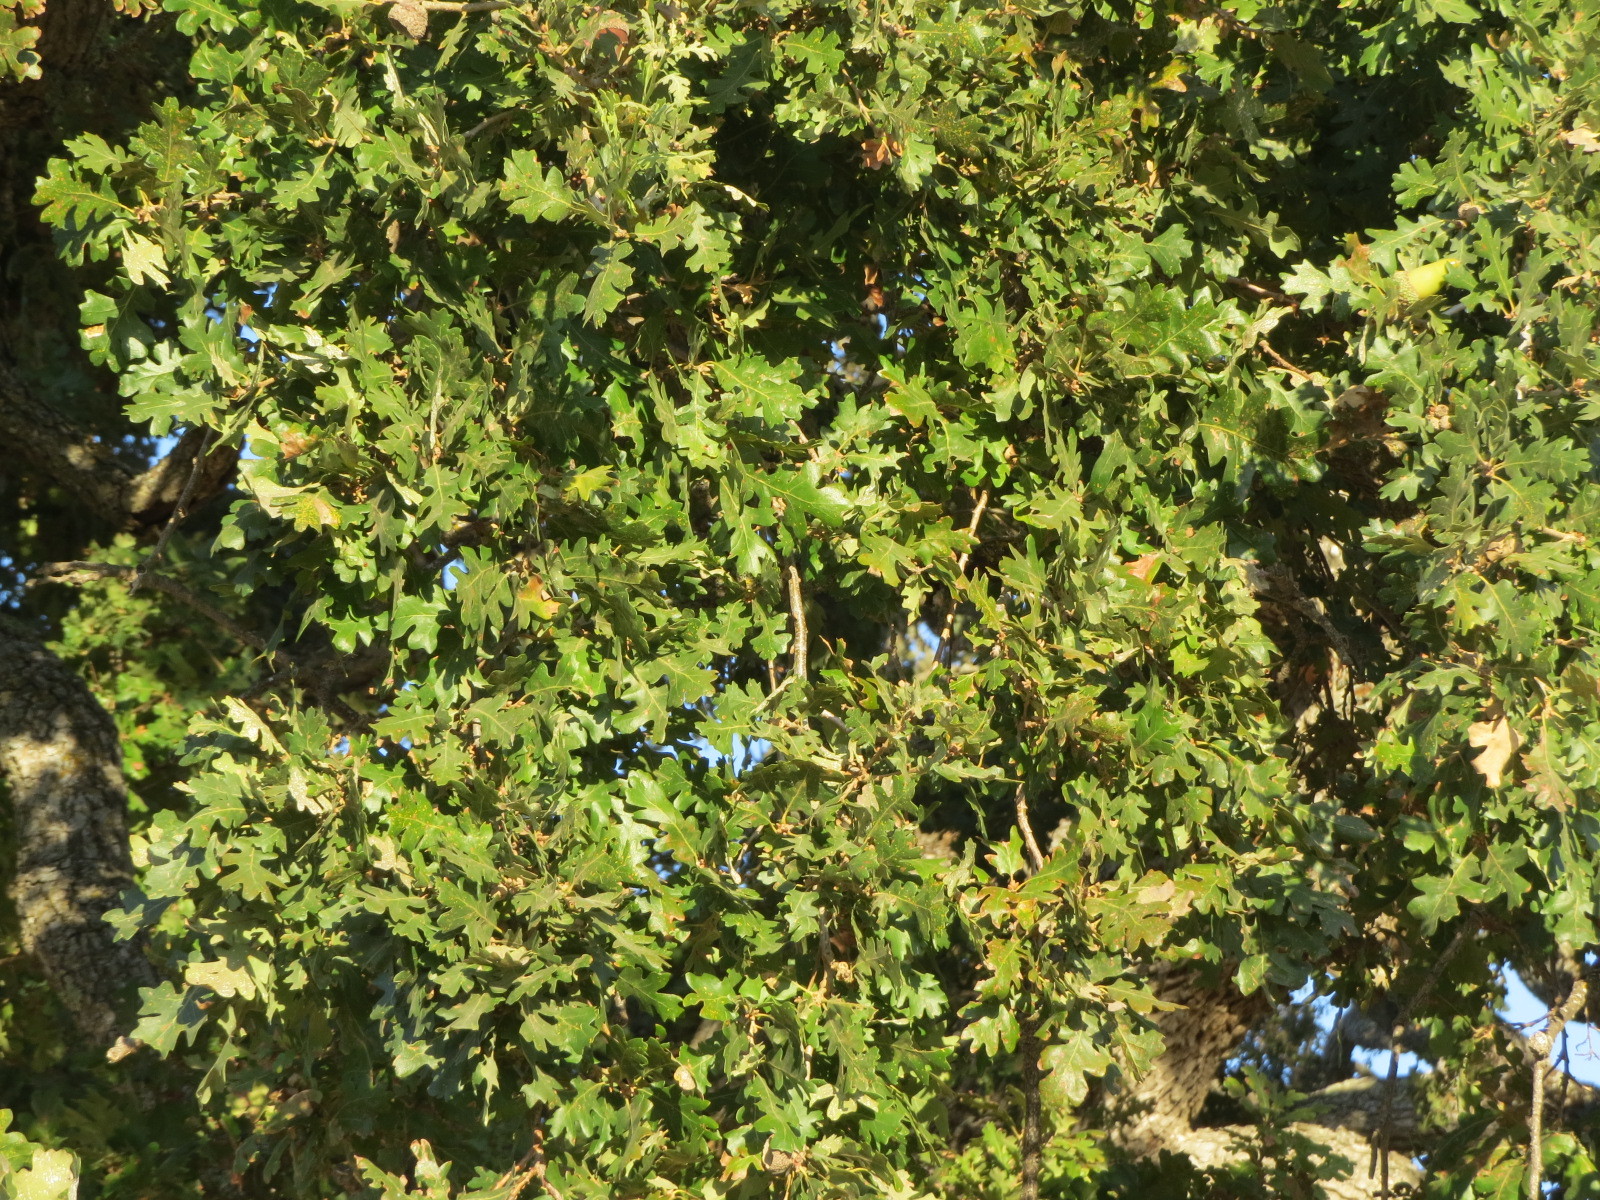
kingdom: Plantae
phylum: Tracheophyta
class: Magnoliopsida
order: Fagales
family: Fagaceae
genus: Quercus
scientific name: Quercus lobata
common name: Valley oak
